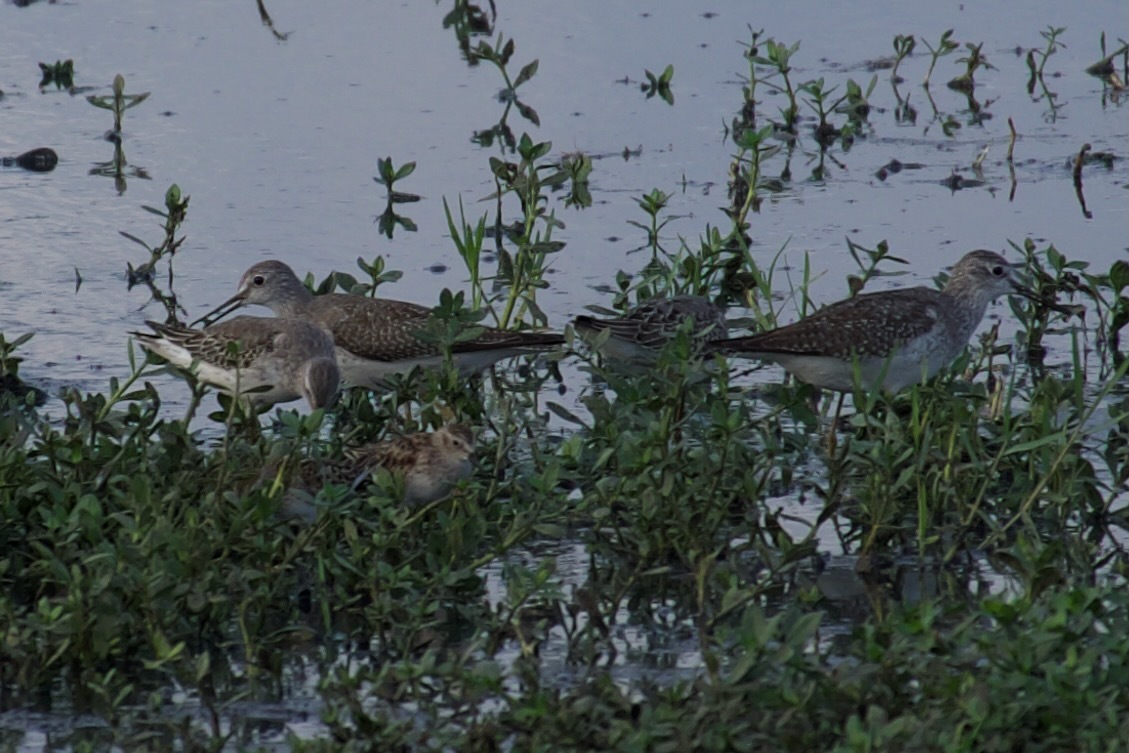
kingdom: Animalia
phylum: Chordata
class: Aves
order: Charadriiformes
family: Scolopacidae
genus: Tringa
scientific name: Tringa flavipes
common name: Lesser yellowlegs
